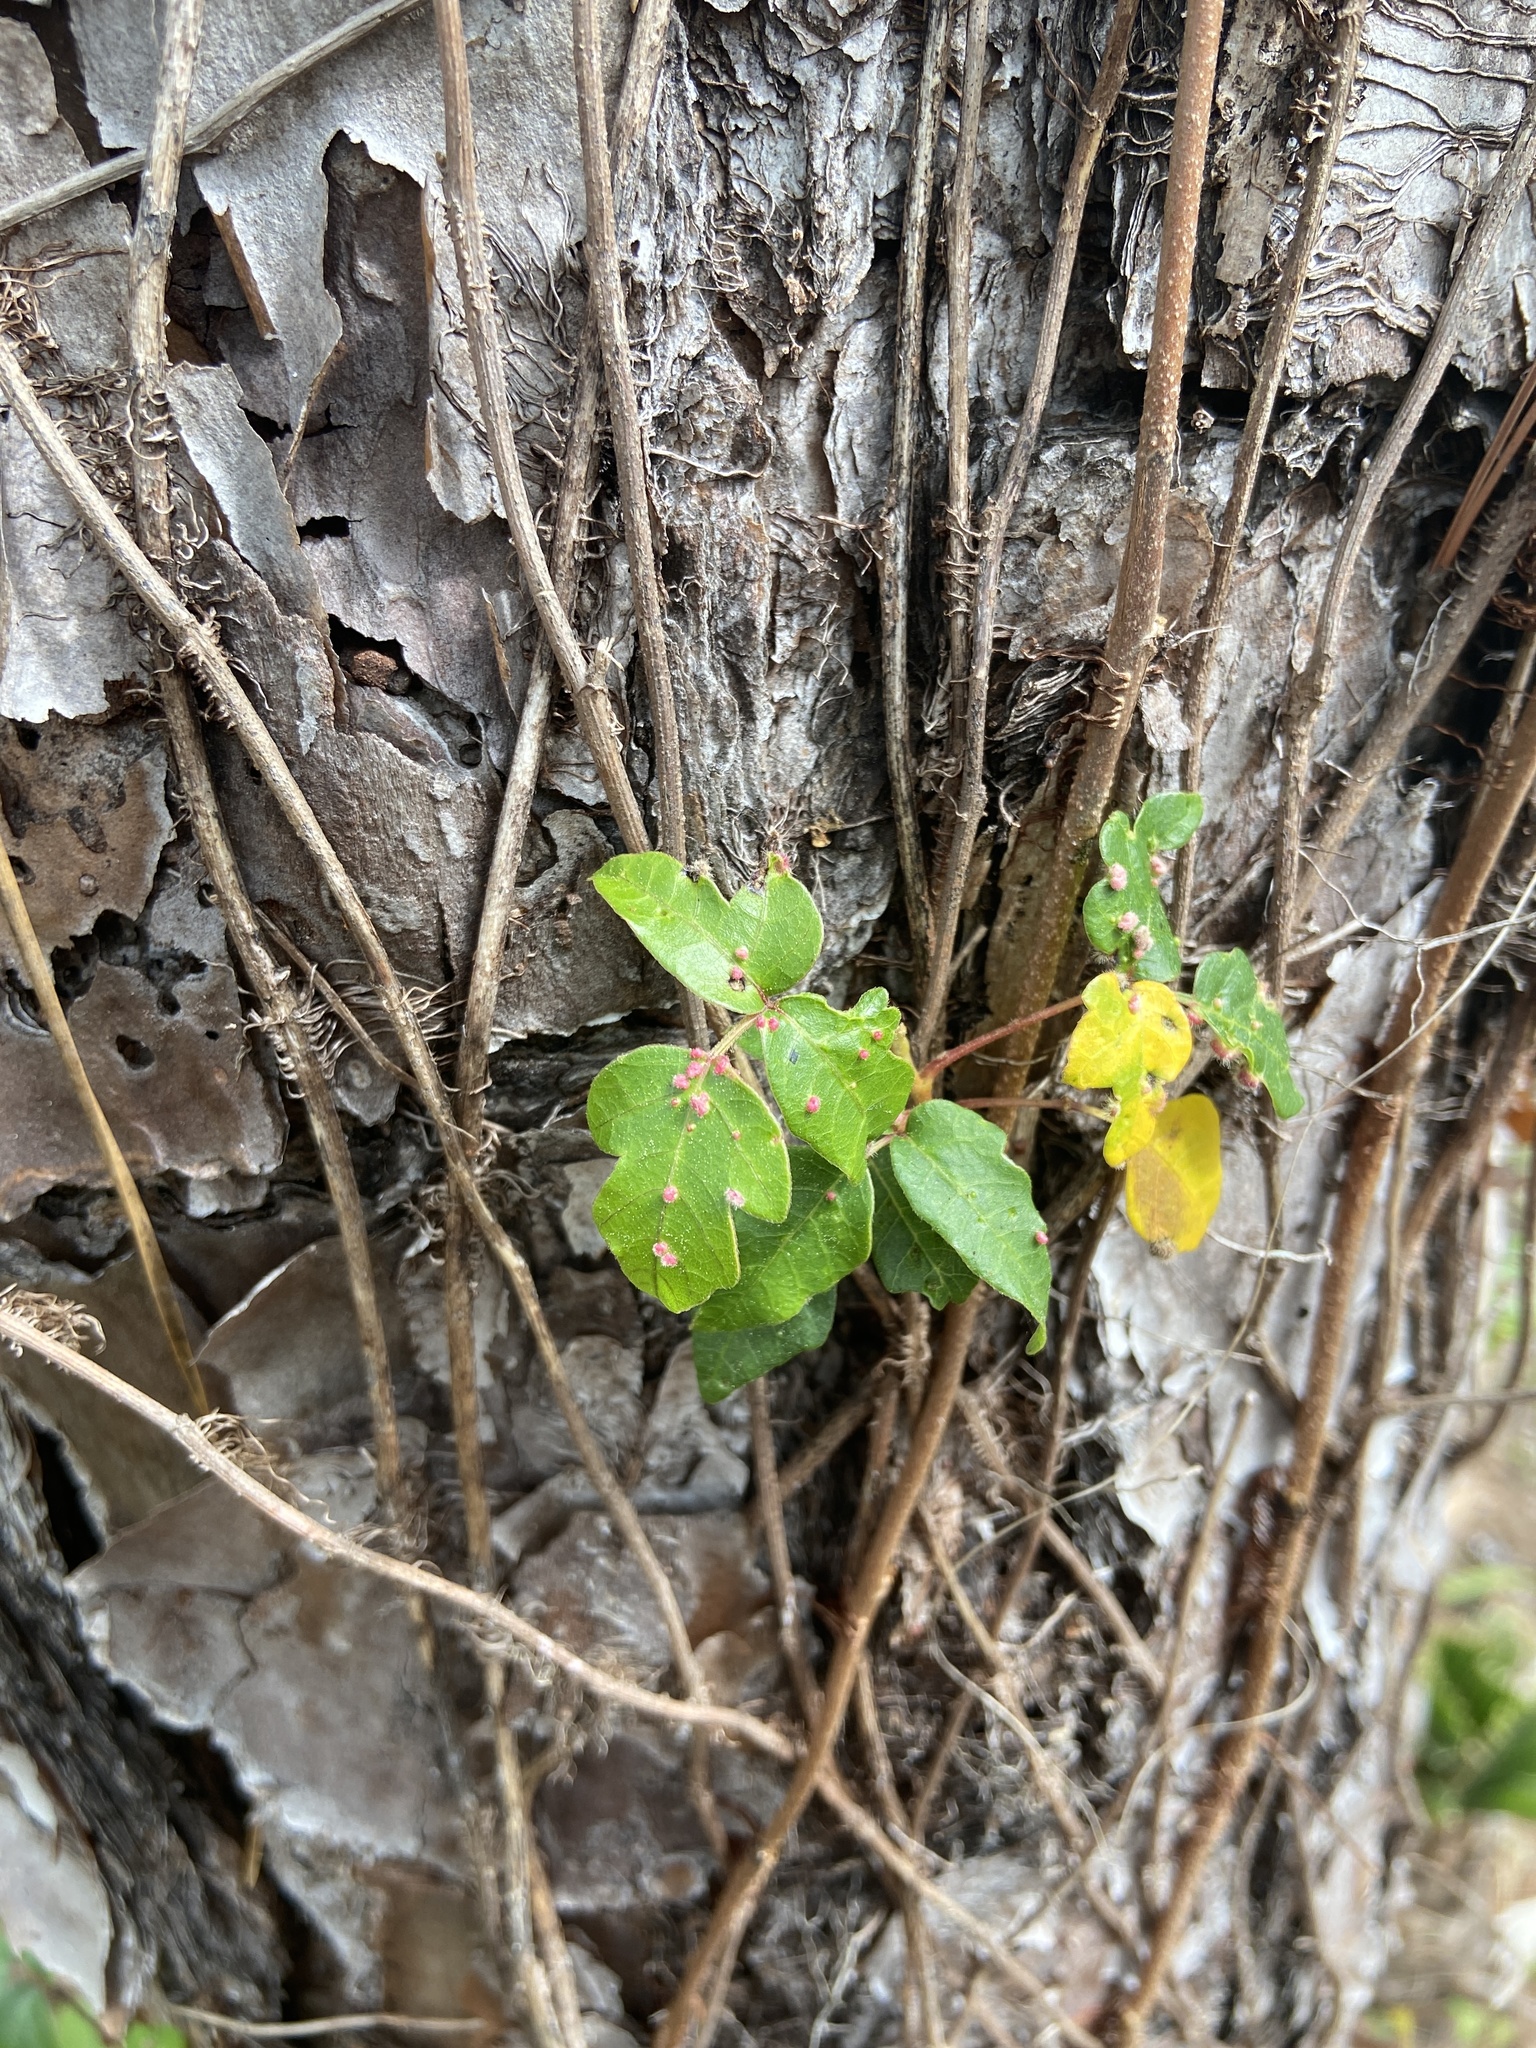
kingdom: Plantae
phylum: Tracheophyta
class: Magnoliopsida
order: Sapindales
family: Anacardiaceae
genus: Toxicodendron
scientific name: Toxicodendron radicans
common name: Poison ivy
